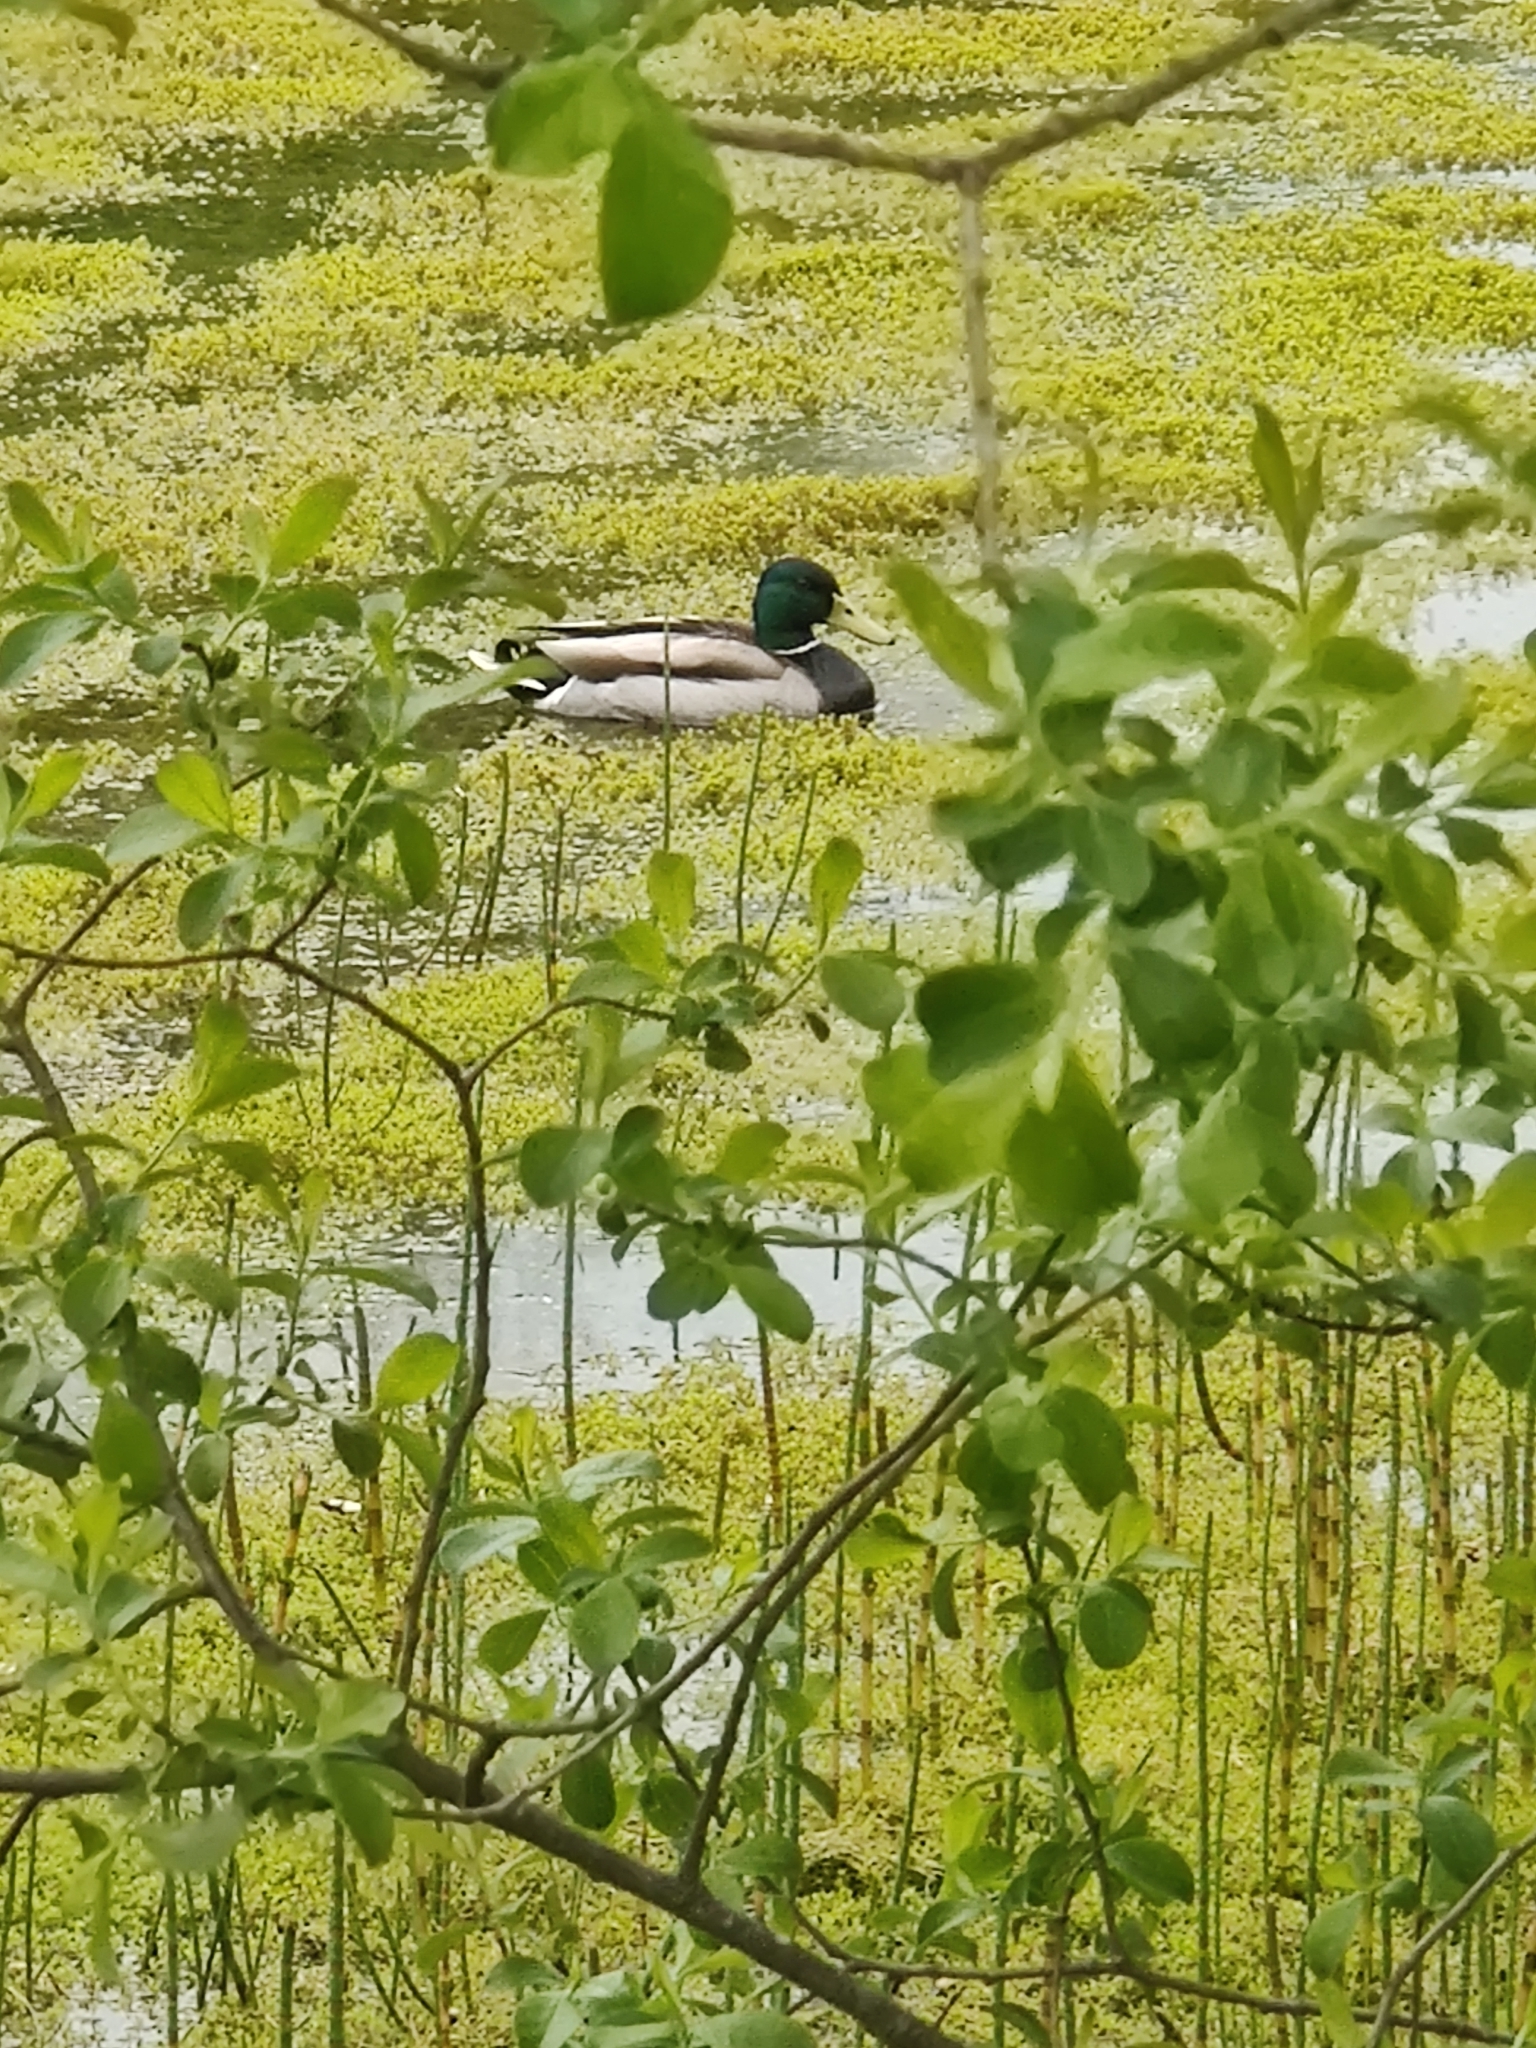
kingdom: Animalia
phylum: Chordata
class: Aves
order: Anseriformes
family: Anatidae
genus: Anas
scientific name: Anas platyrhynchos
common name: Mallard
